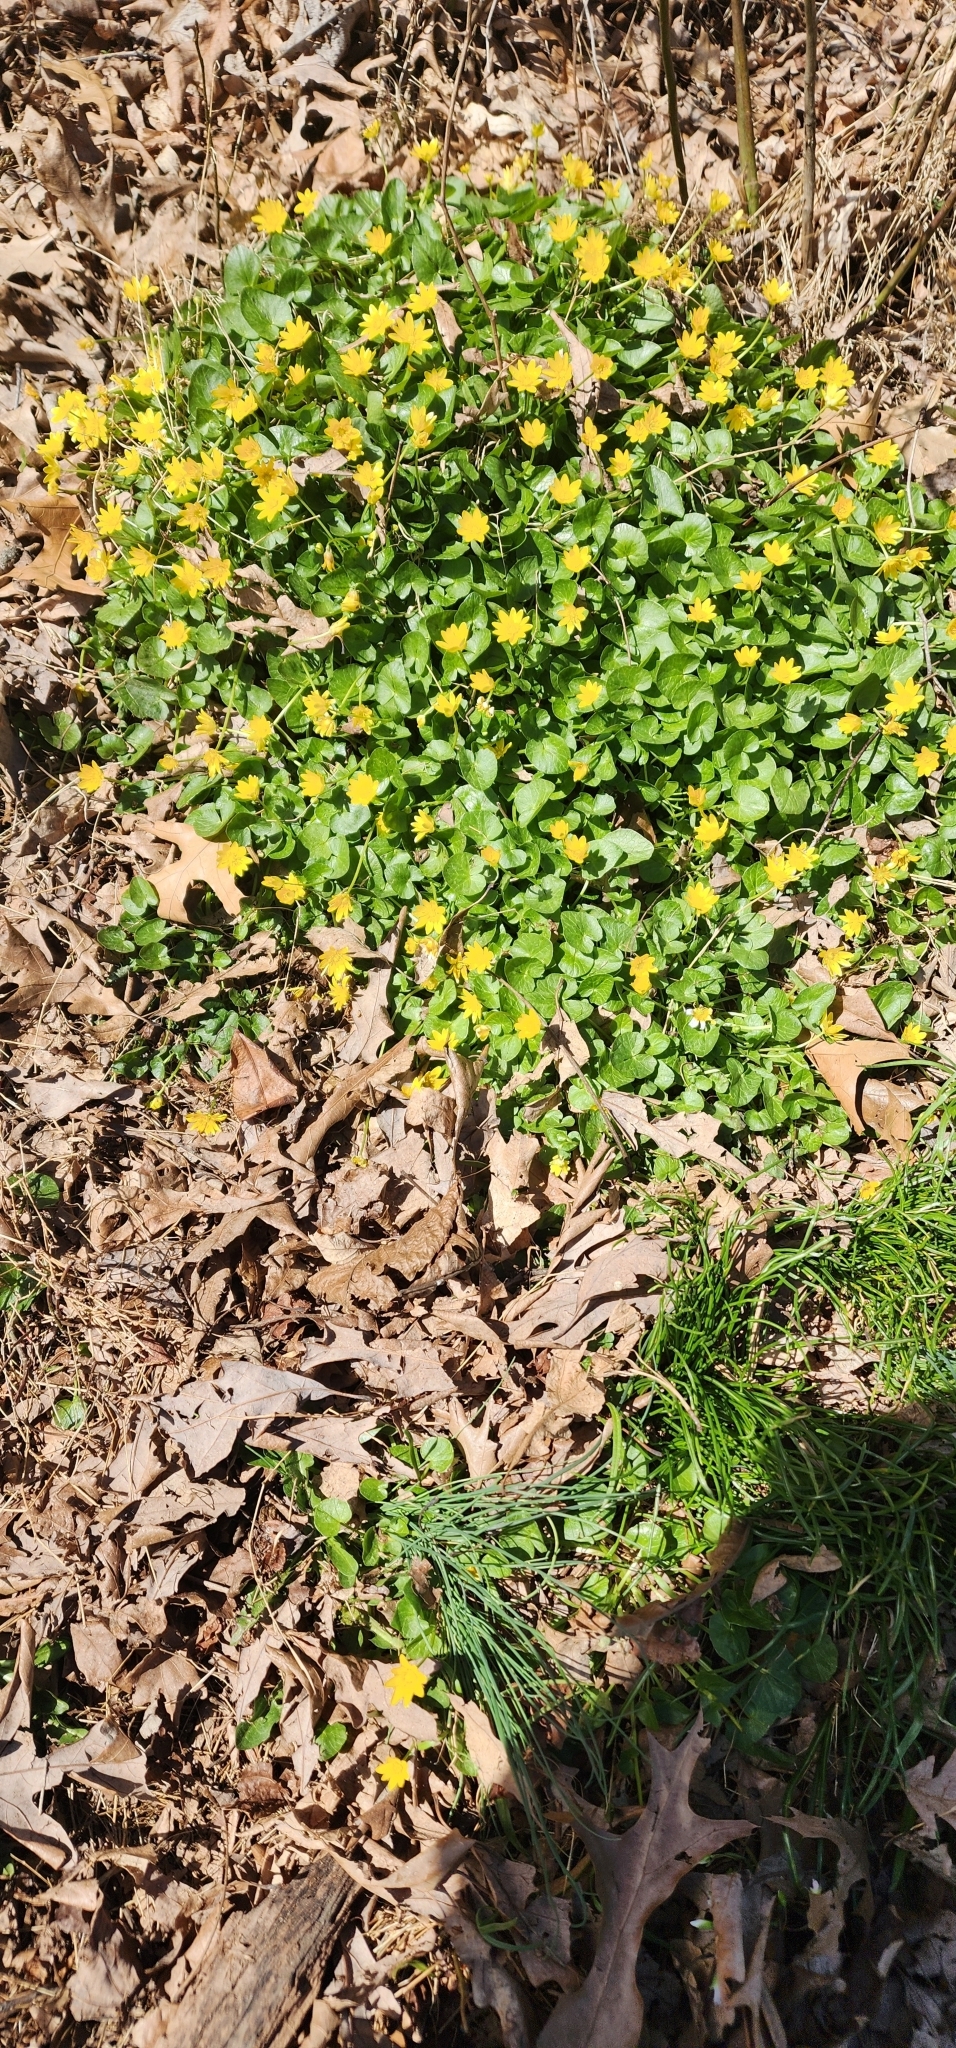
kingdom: Plantae
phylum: Tracheophyta
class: Magnoliopsida
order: Ranunculales
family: Ranunculaceae
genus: Ficaria
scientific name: Ficaria verna
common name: Lesser celandine
